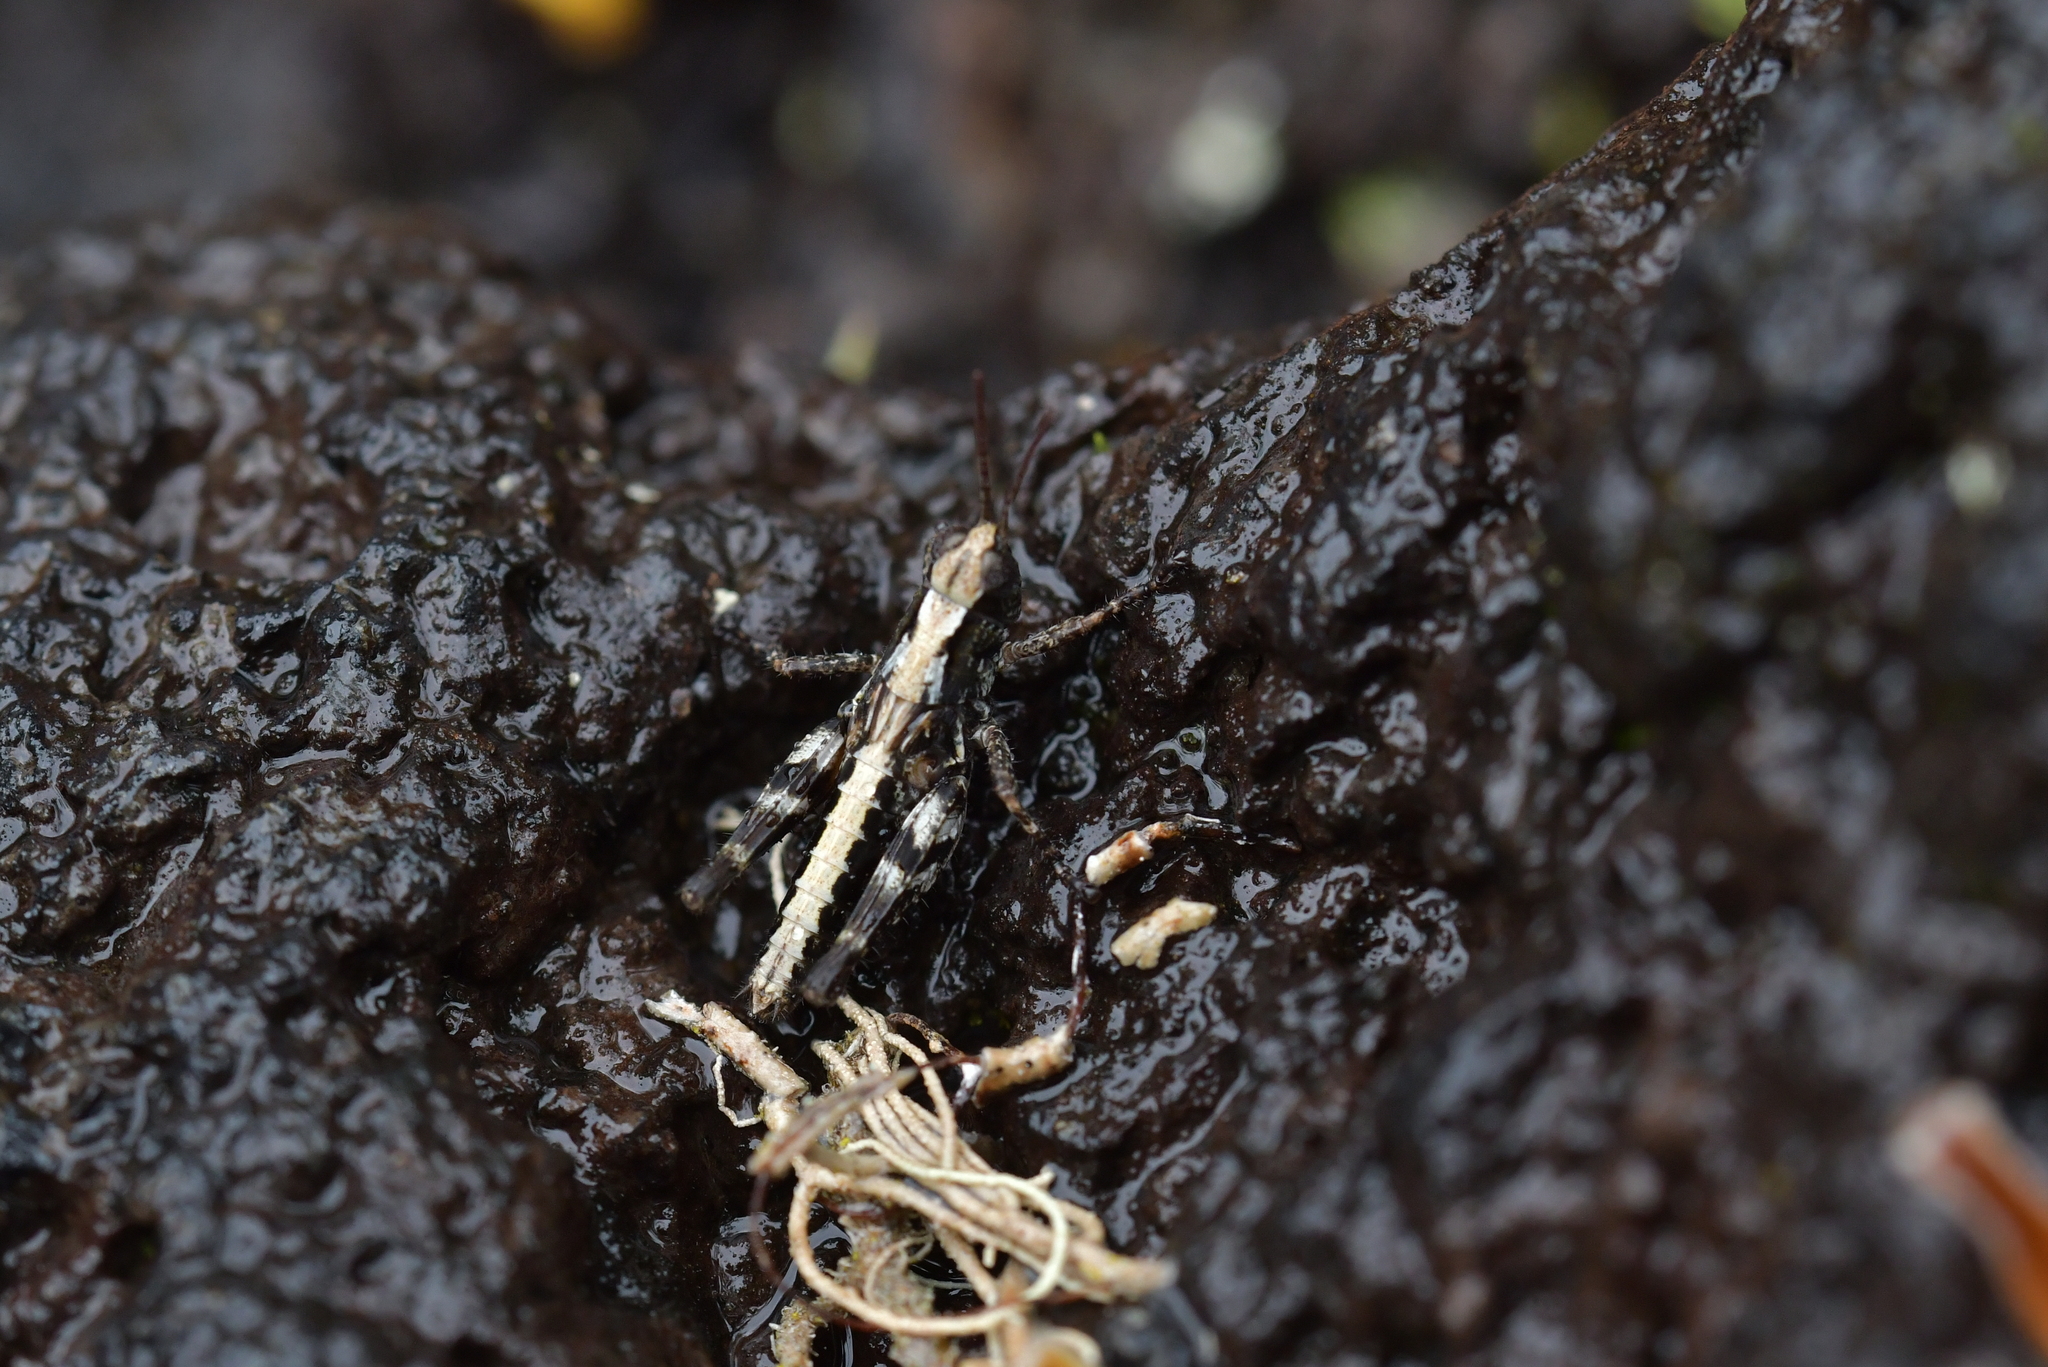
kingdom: Animalia
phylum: Arthropoda
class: Insecta
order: Orthoptera
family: Acrididae
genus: Phaulacridium
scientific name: Phaulacridium marginale
